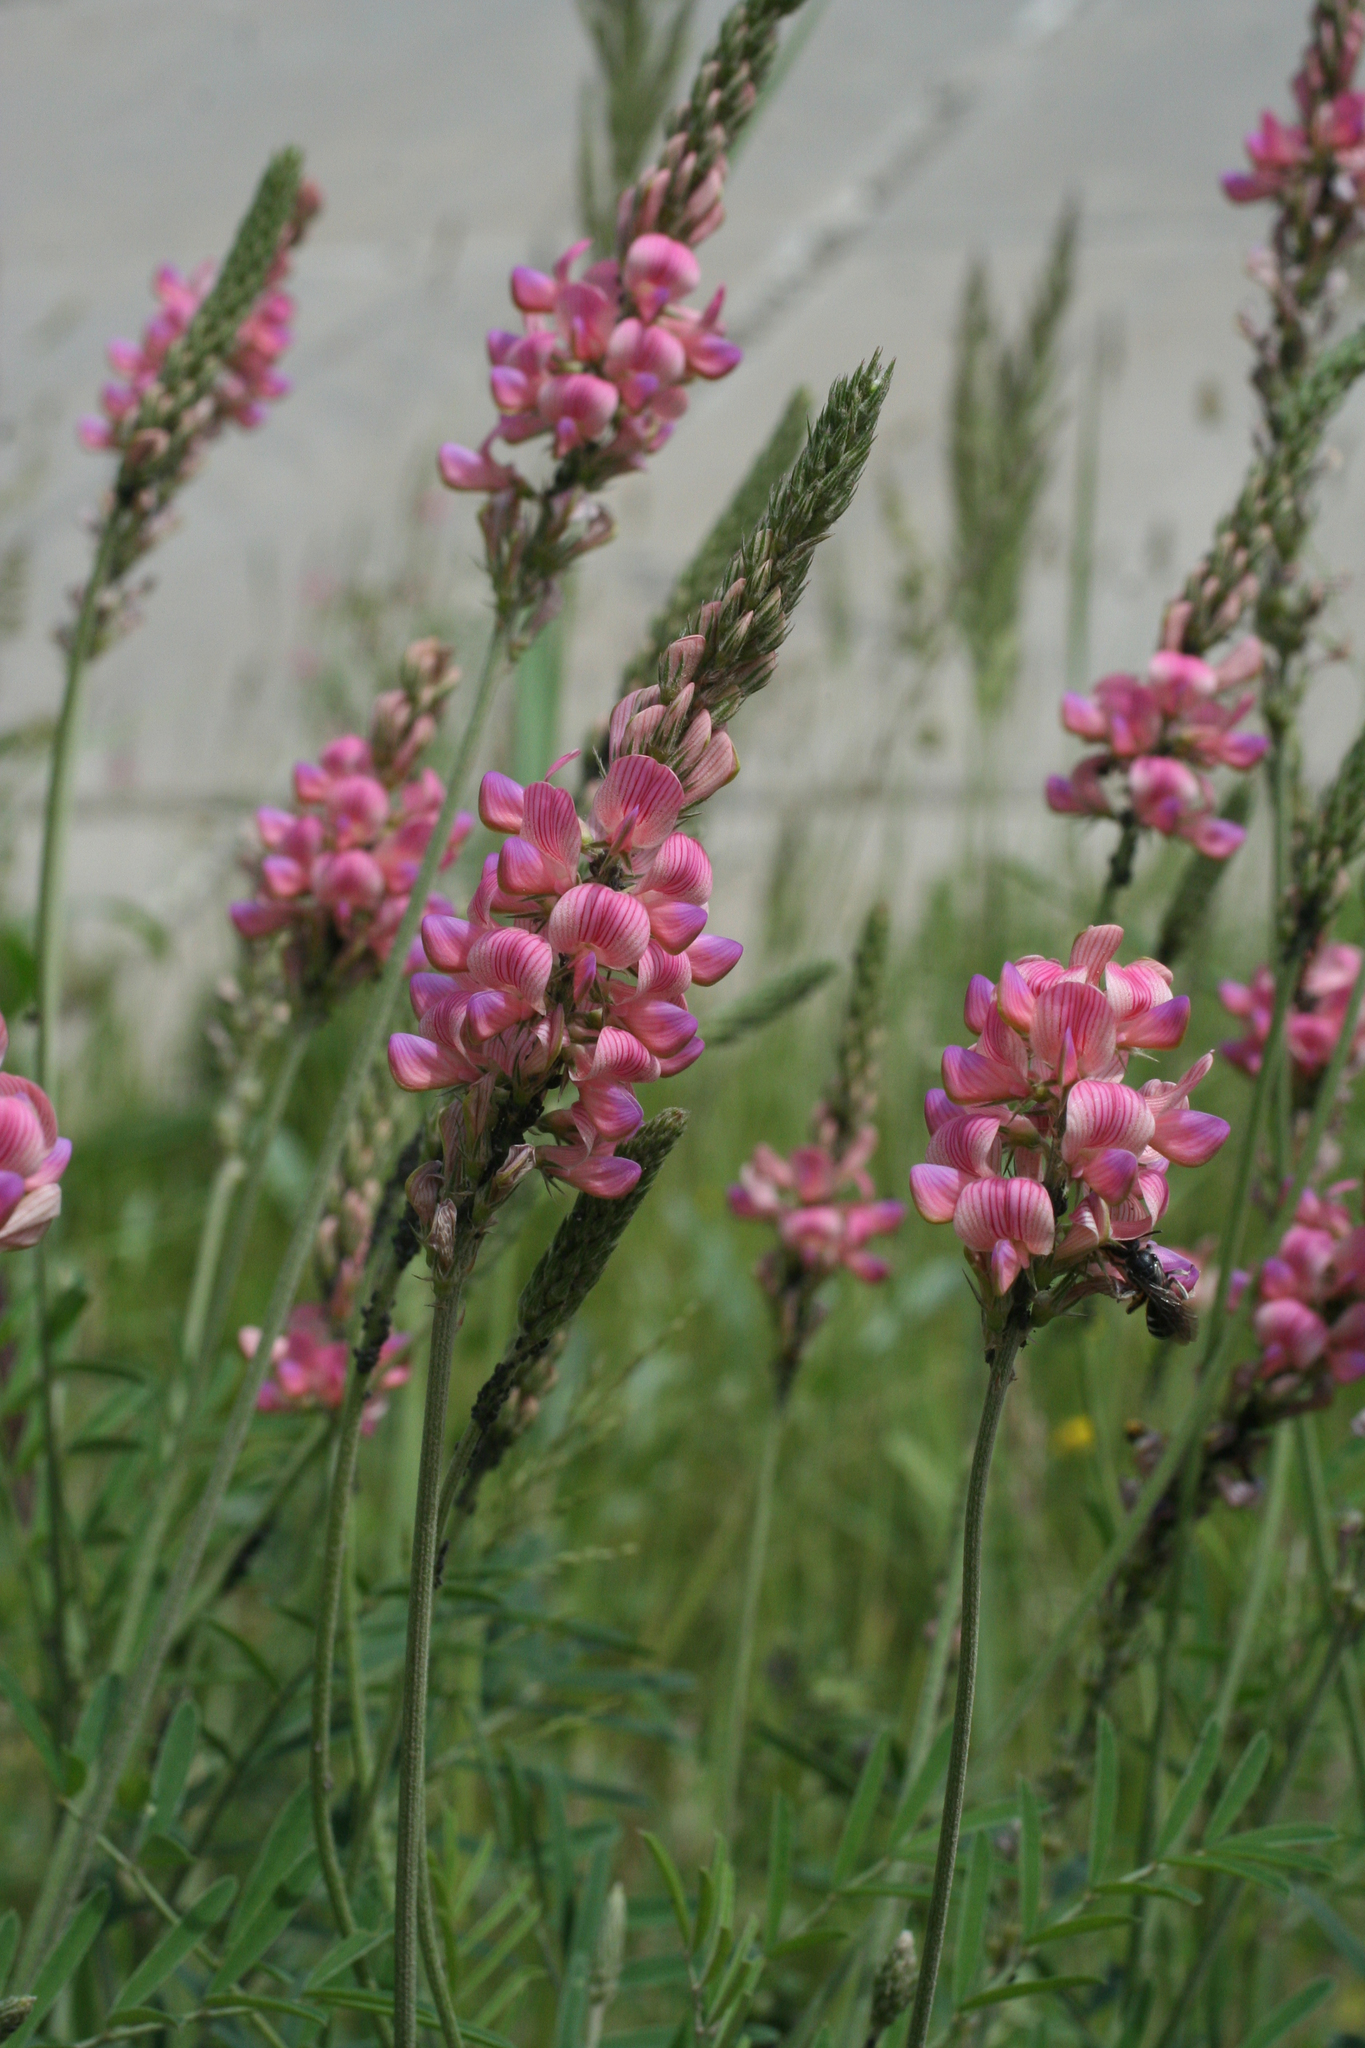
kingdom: Plantae
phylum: Tracheophyta
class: Magnoliopsida
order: Fabales
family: Fabaceae
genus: Onobrychis
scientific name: Onobrychis arenaria
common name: Sand esparcet
